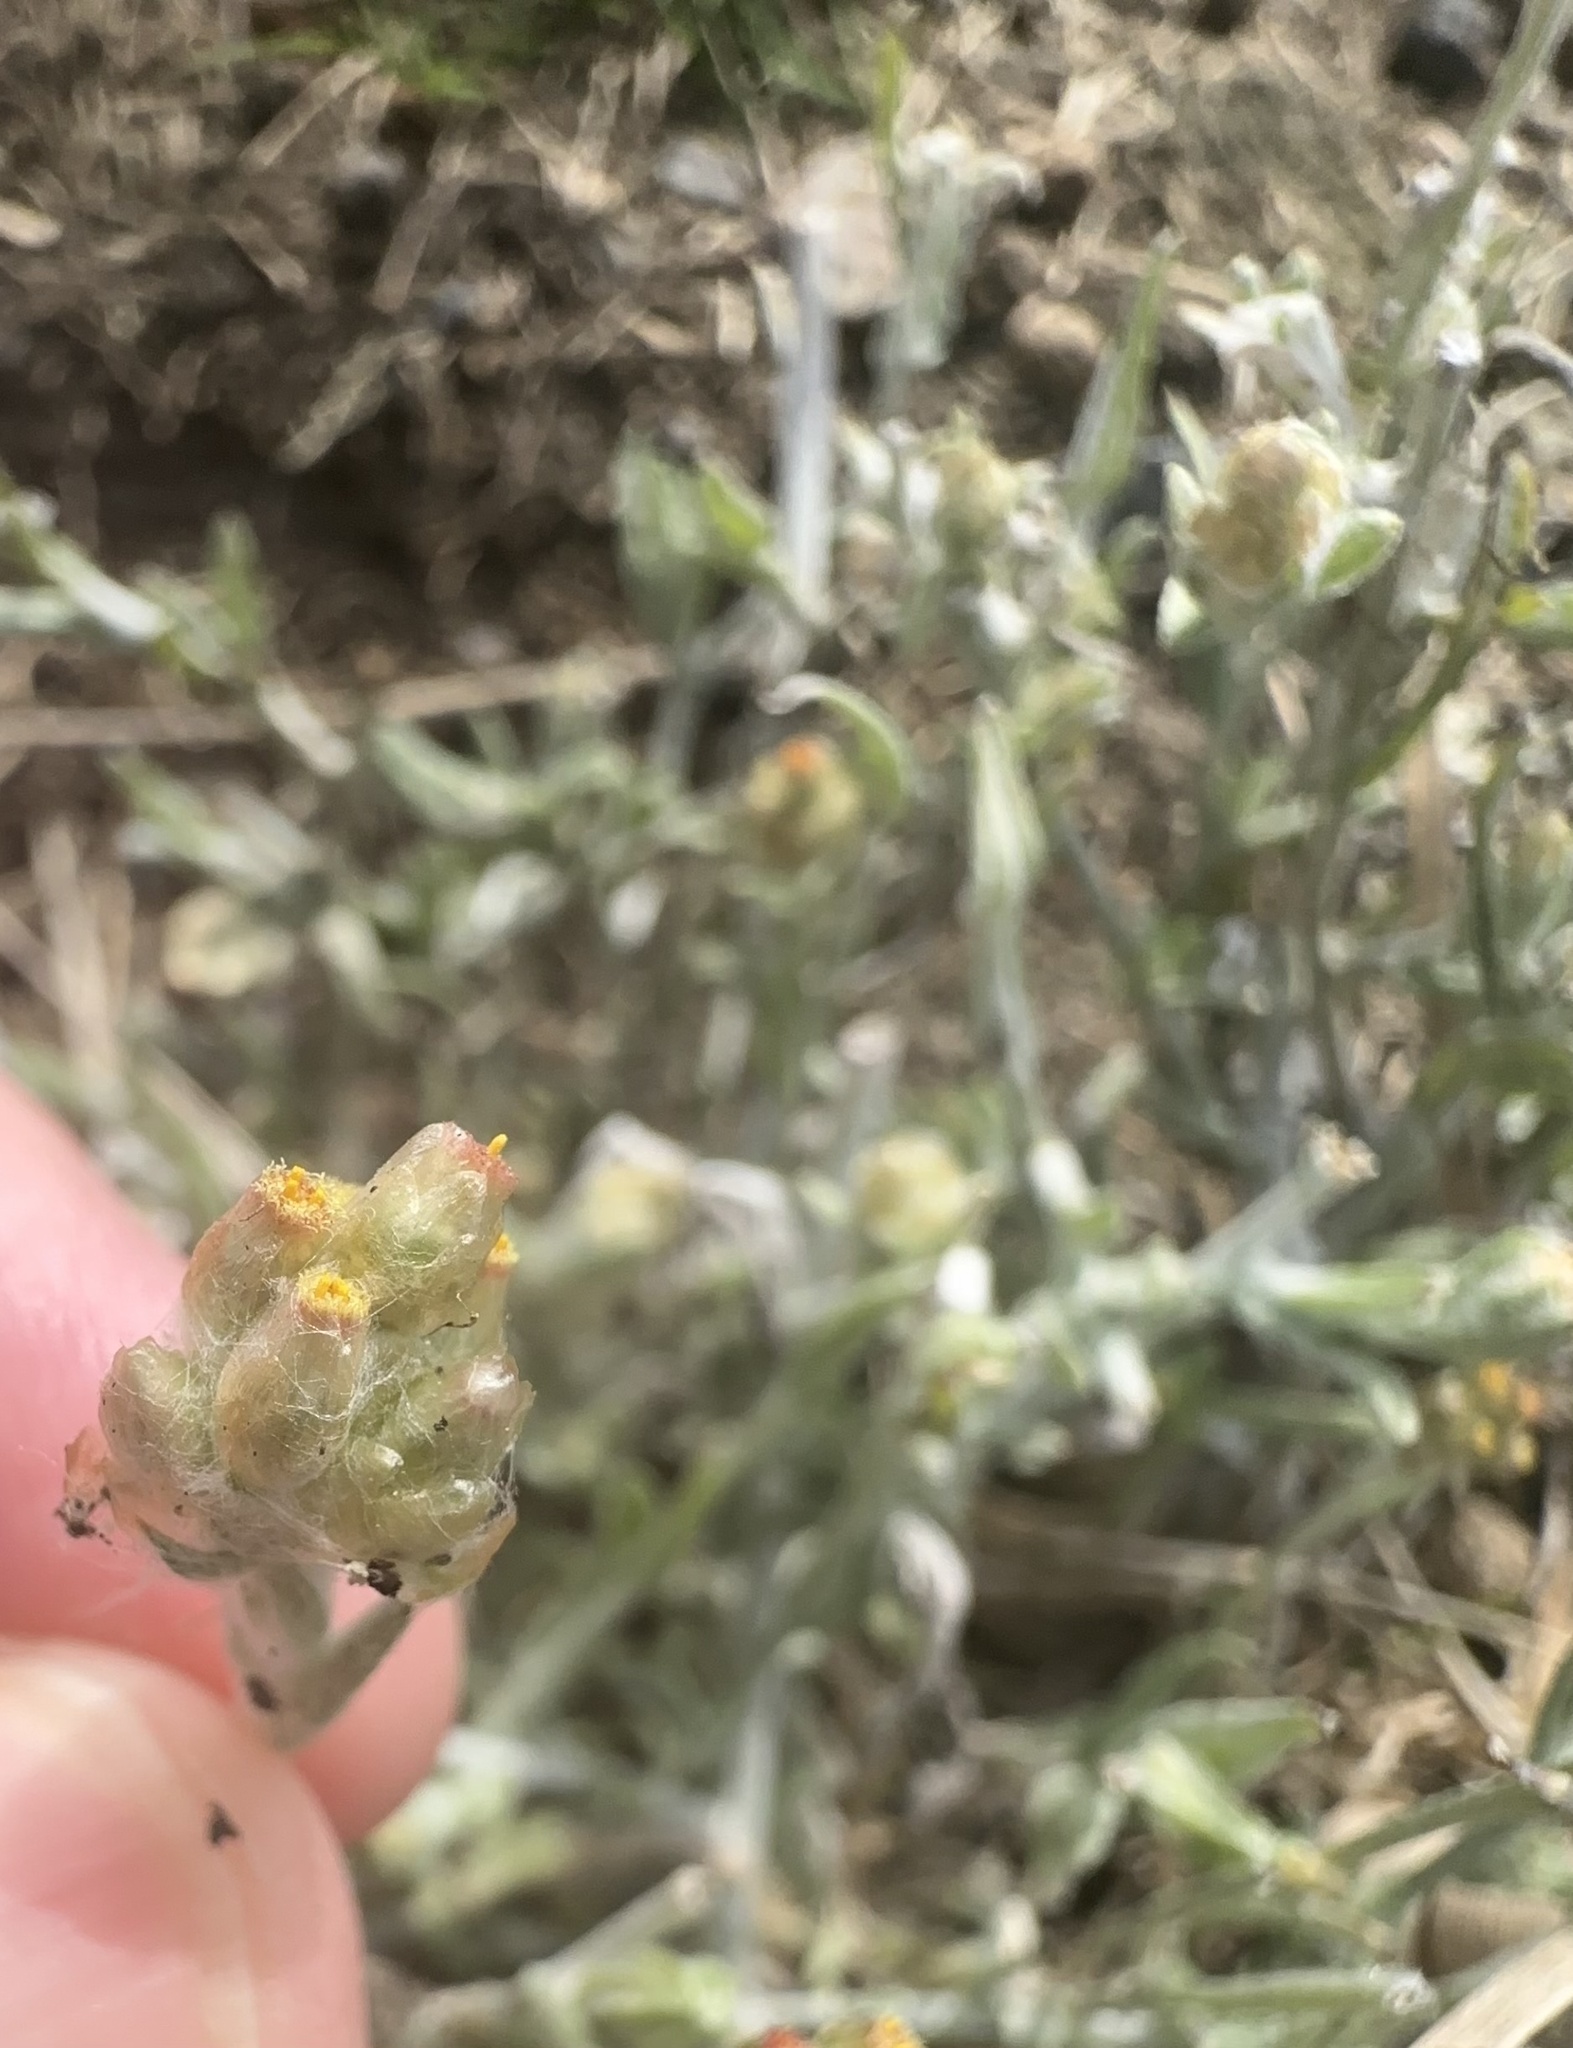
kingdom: Plantae
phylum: Tracheophyta
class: Magnoliopsida
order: Asterales
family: Asteraceae
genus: Helichrysum
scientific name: Helichrysum luteoalbum
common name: Daisy
